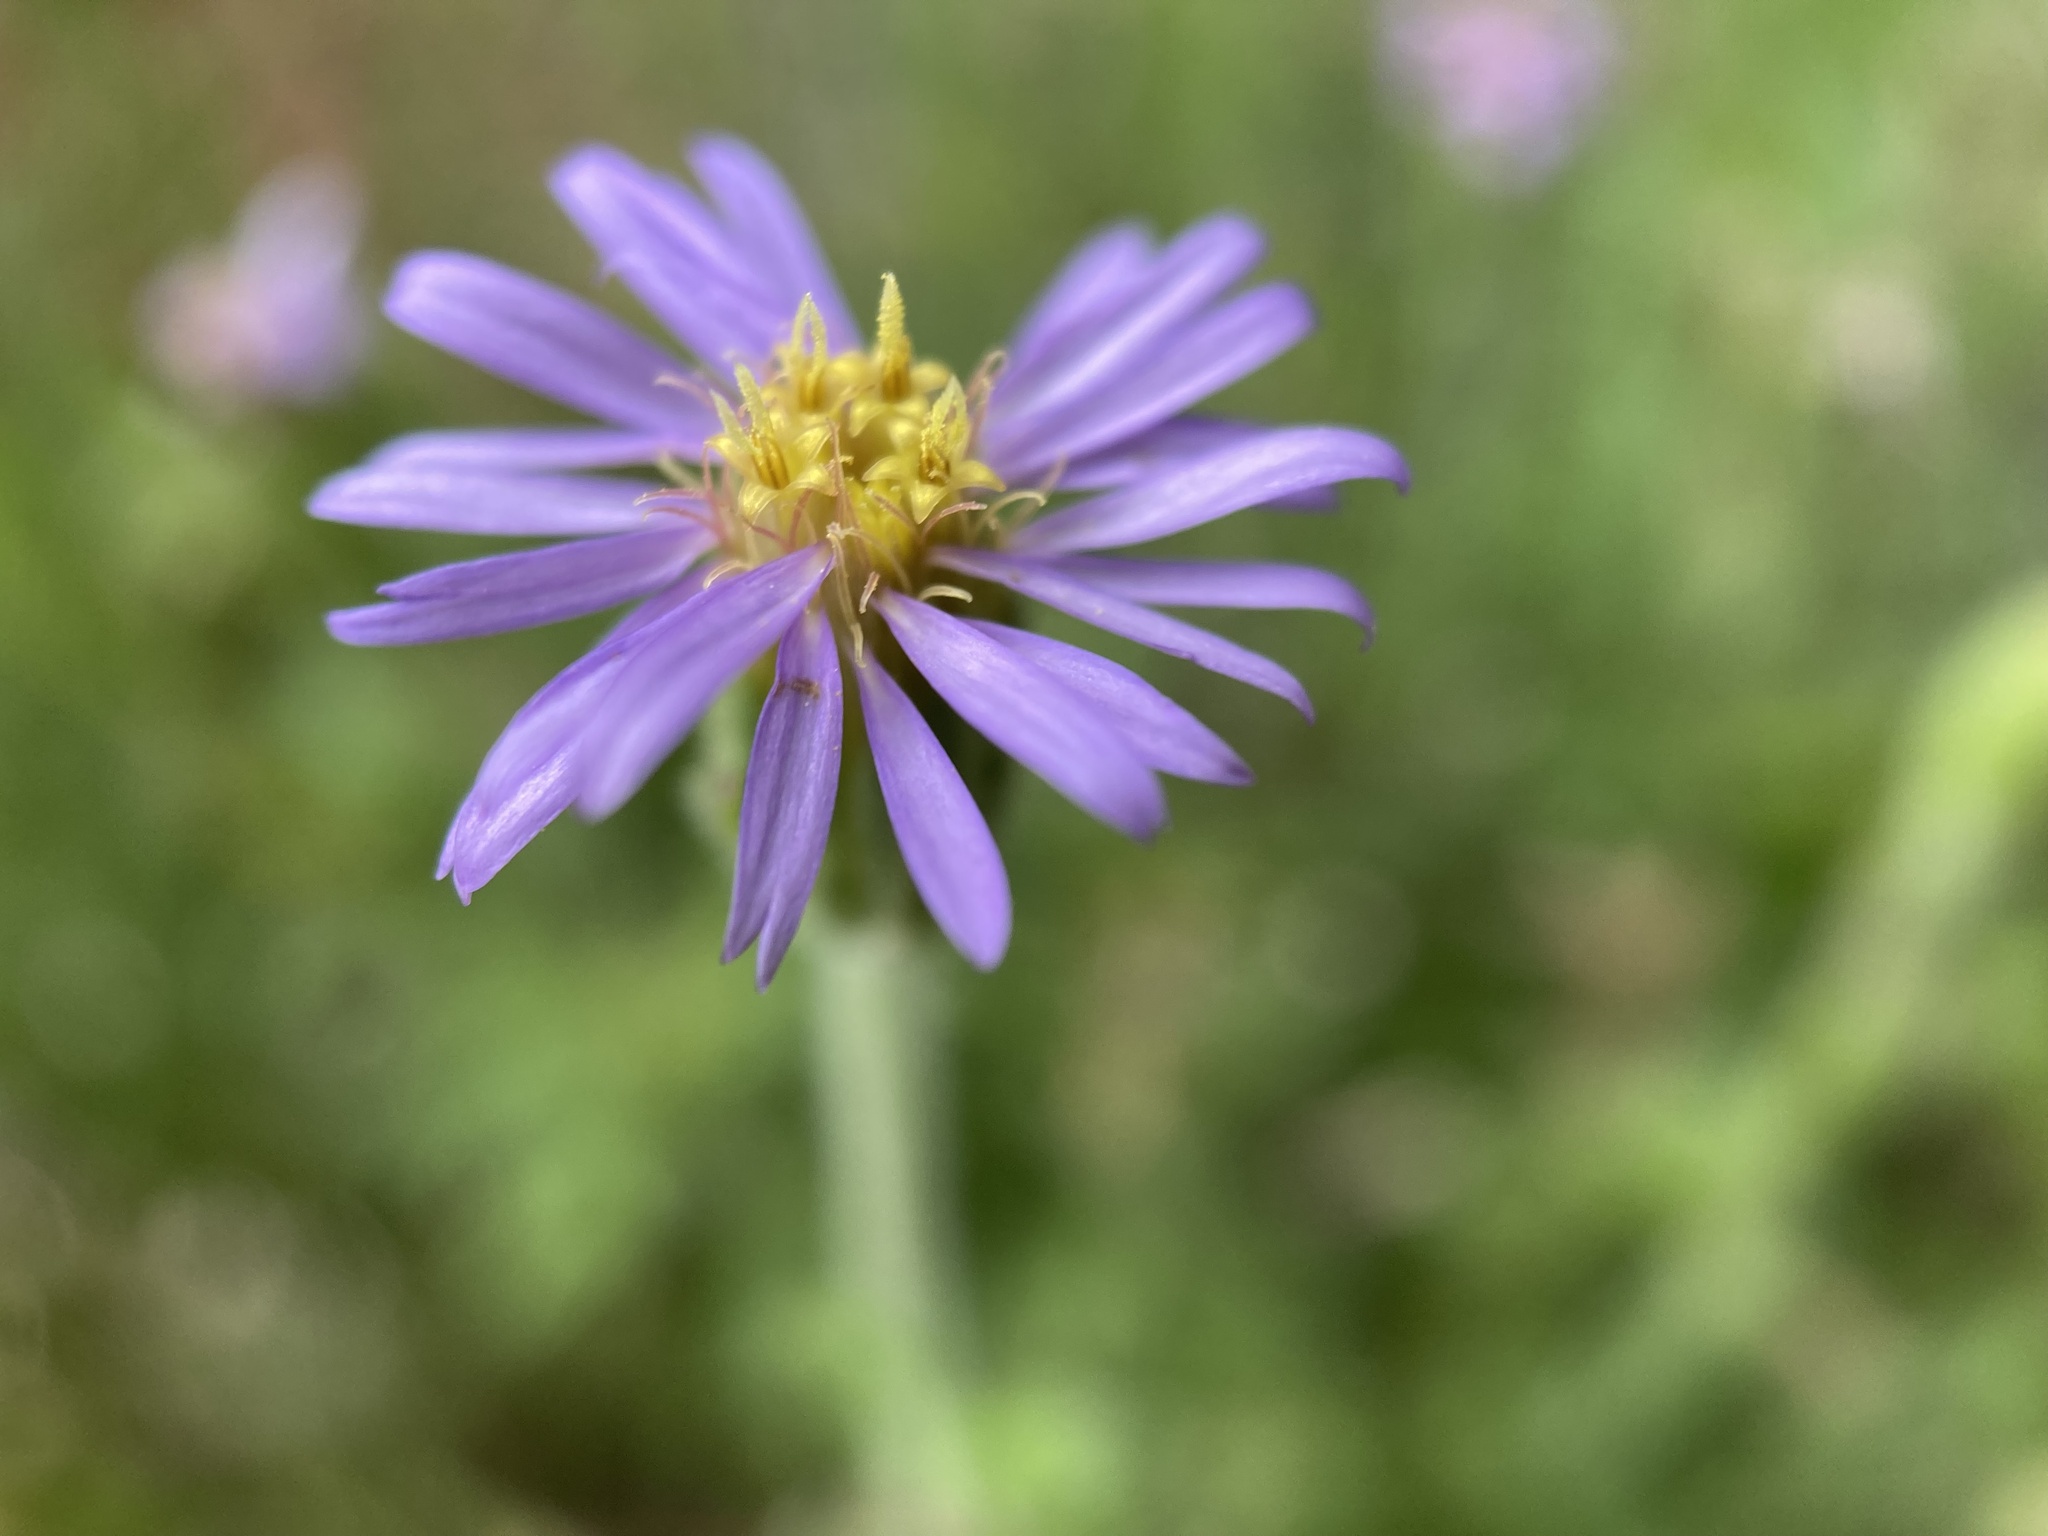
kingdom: Plantae
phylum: Tracheophyta
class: Magnoliopsida
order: Asterales
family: Asteraceae
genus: Vittadinia
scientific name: Vittadinia gracilis
